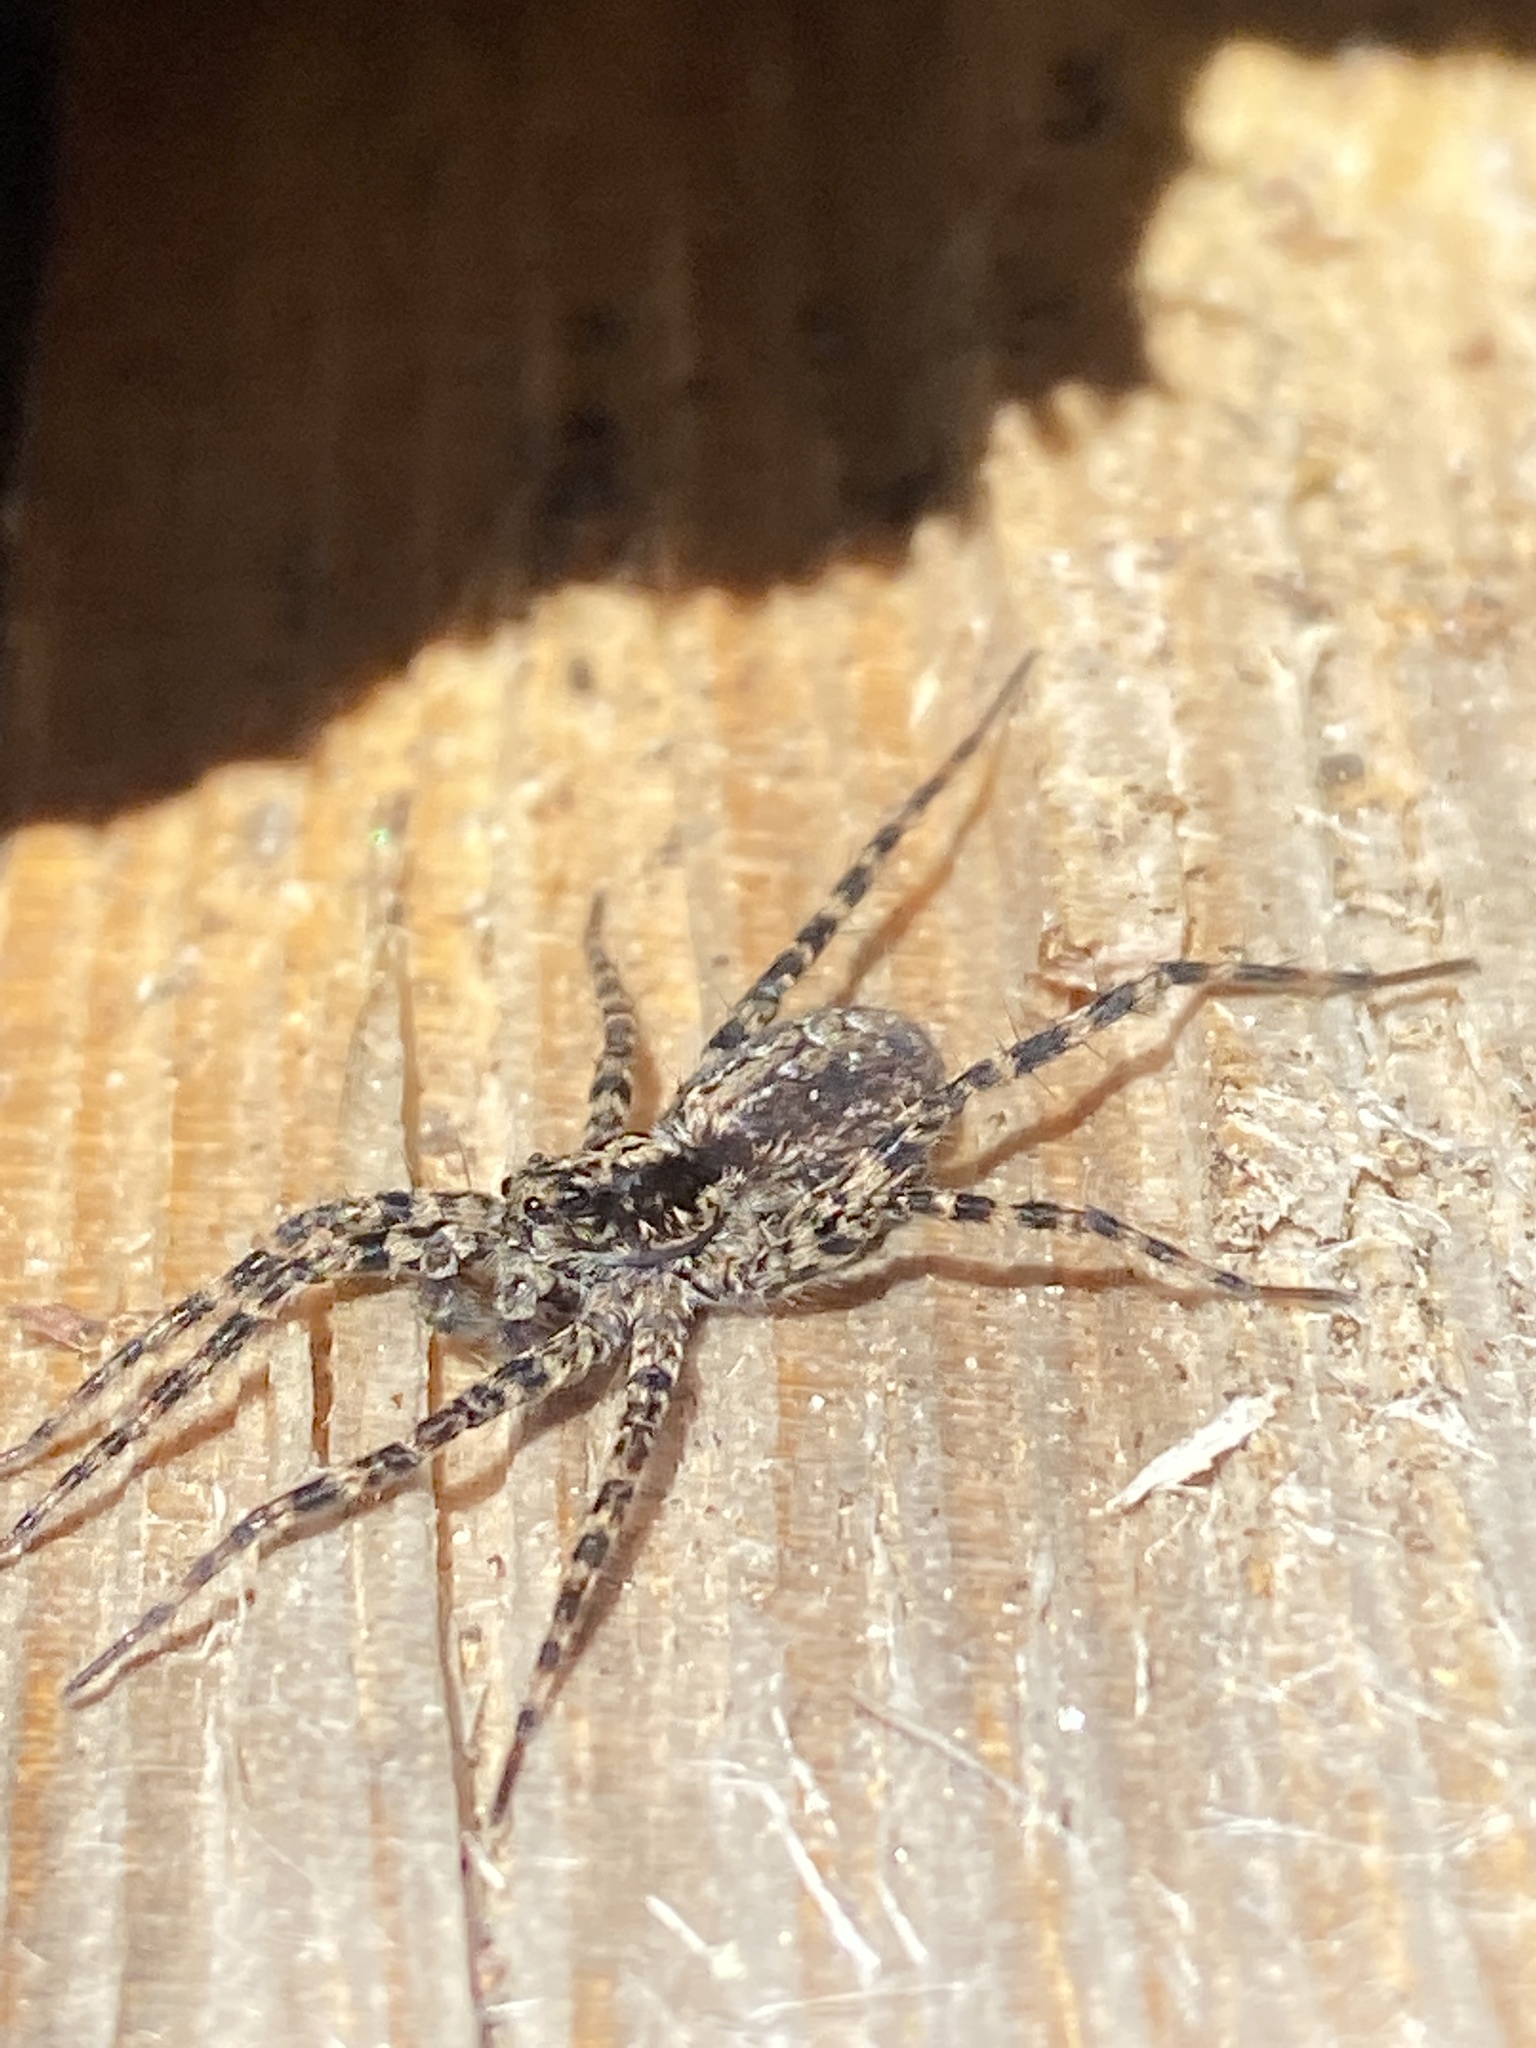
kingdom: Animalia
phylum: Arthropoda
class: Arachnida
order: Araneae
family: Lycosidae
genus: Acantholycosa
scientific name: Acantholycosa lignaria
